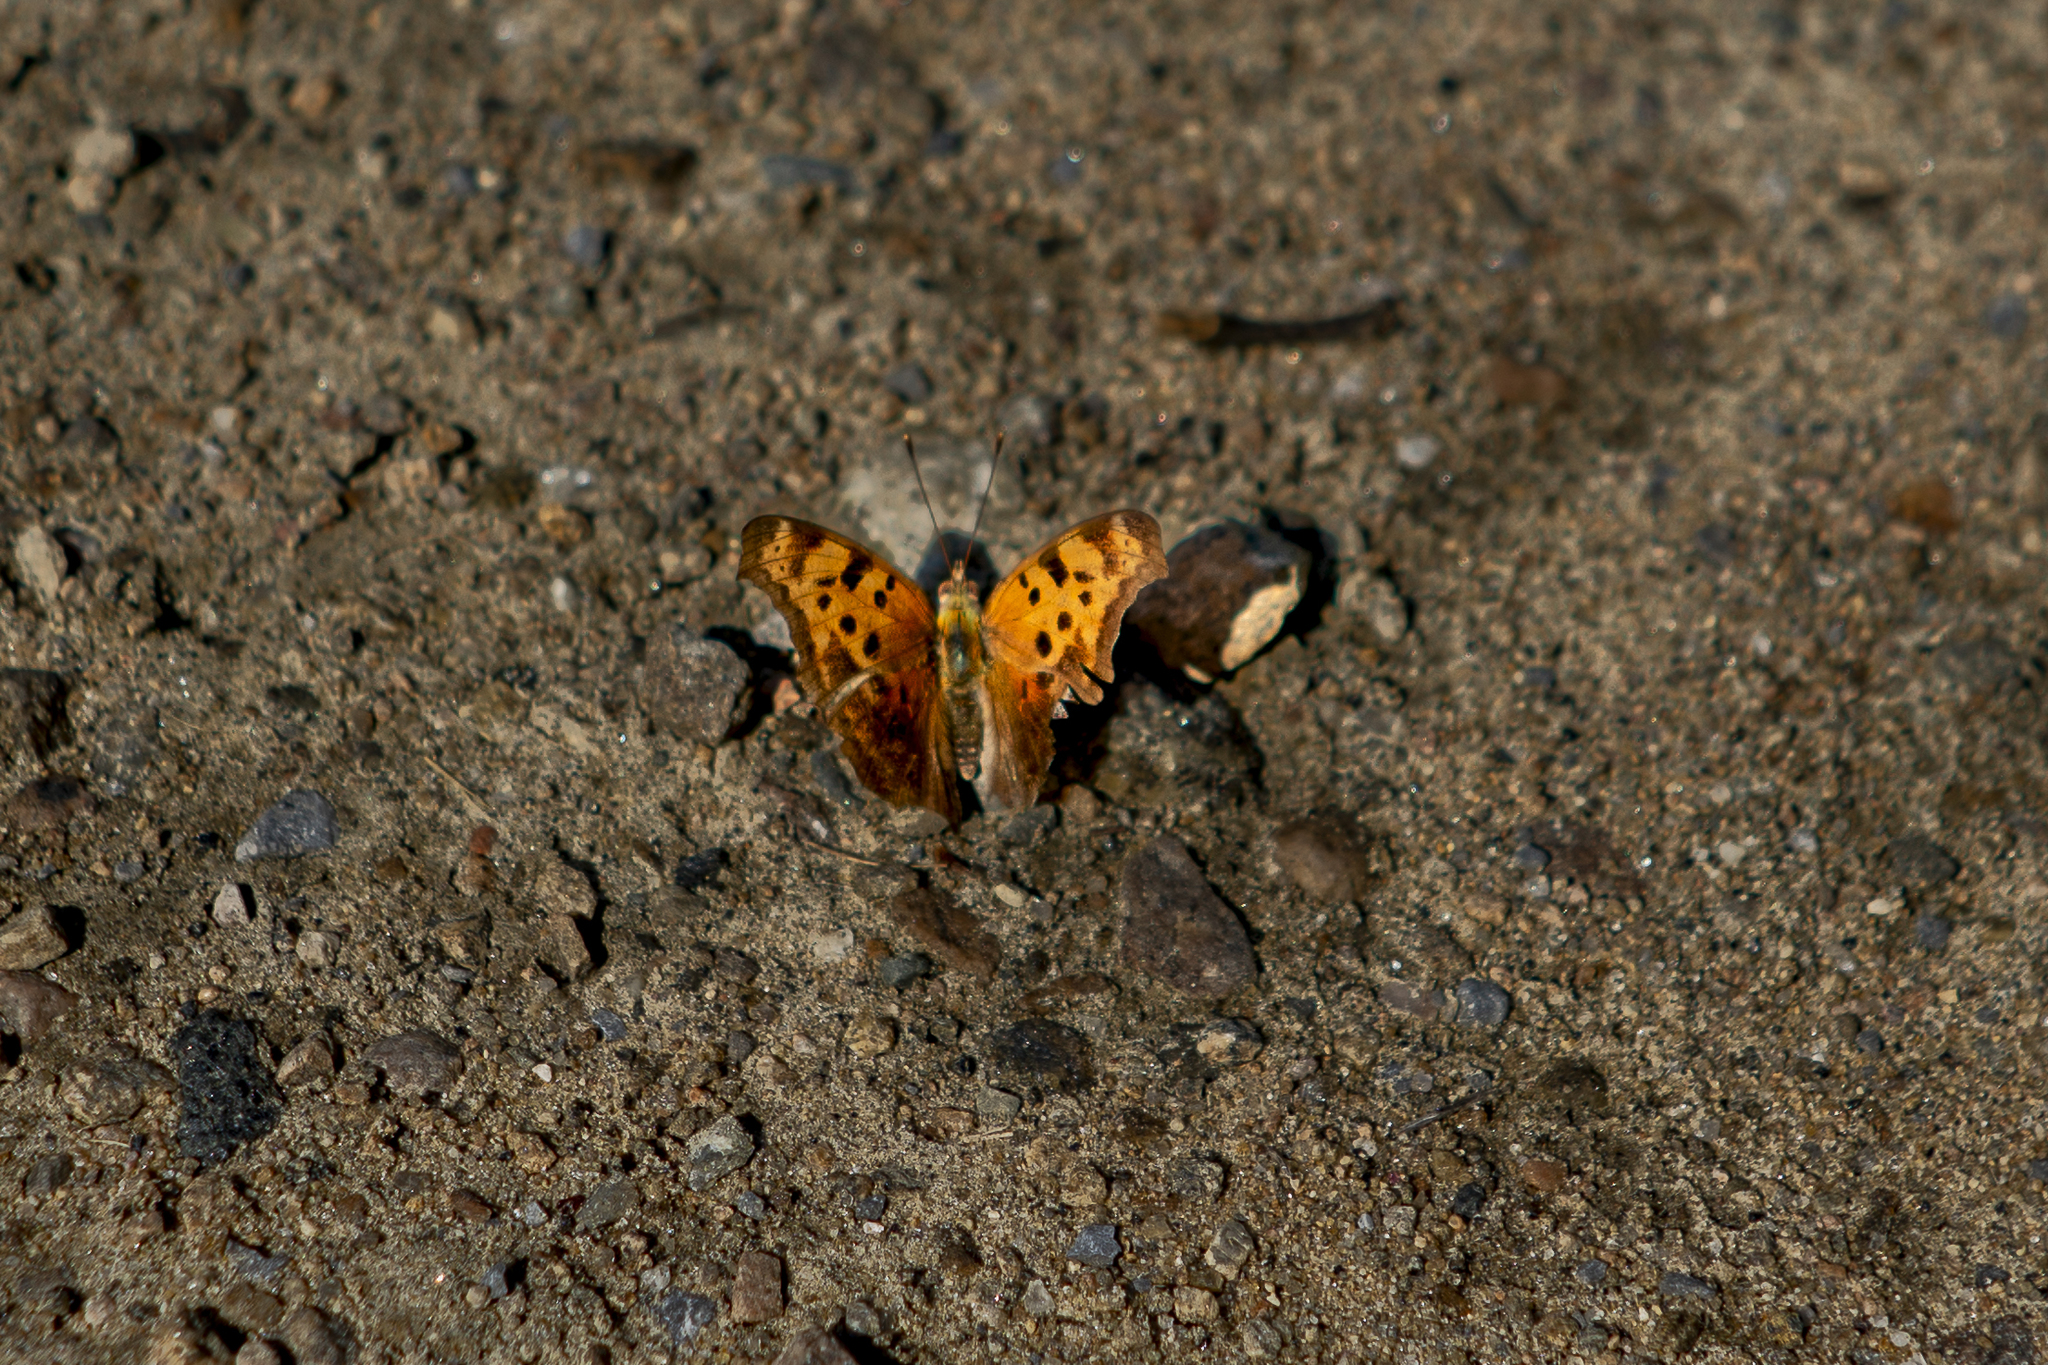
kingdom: Animalia
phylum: Arthropoda
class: Insecta
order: Lepidoptera
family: Nymphalidae
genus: Polygonia
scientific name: Polygonia comma
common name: Eastern comma
